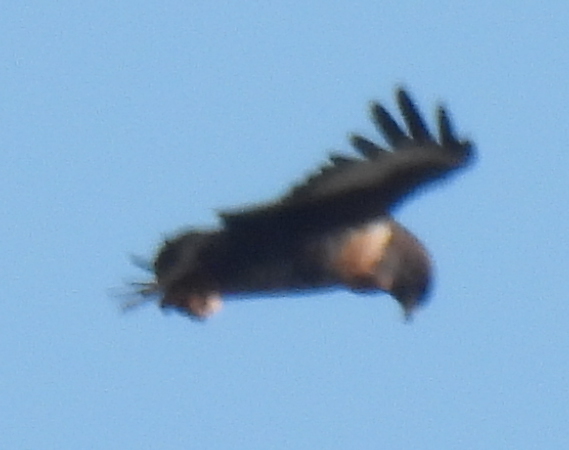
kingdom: Animalia
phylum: Chordata
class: Aves
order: Accipitriformes
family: Accipitridae
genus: Buteo
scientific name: Buteo rufofuscus
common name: Jackal buzzard
